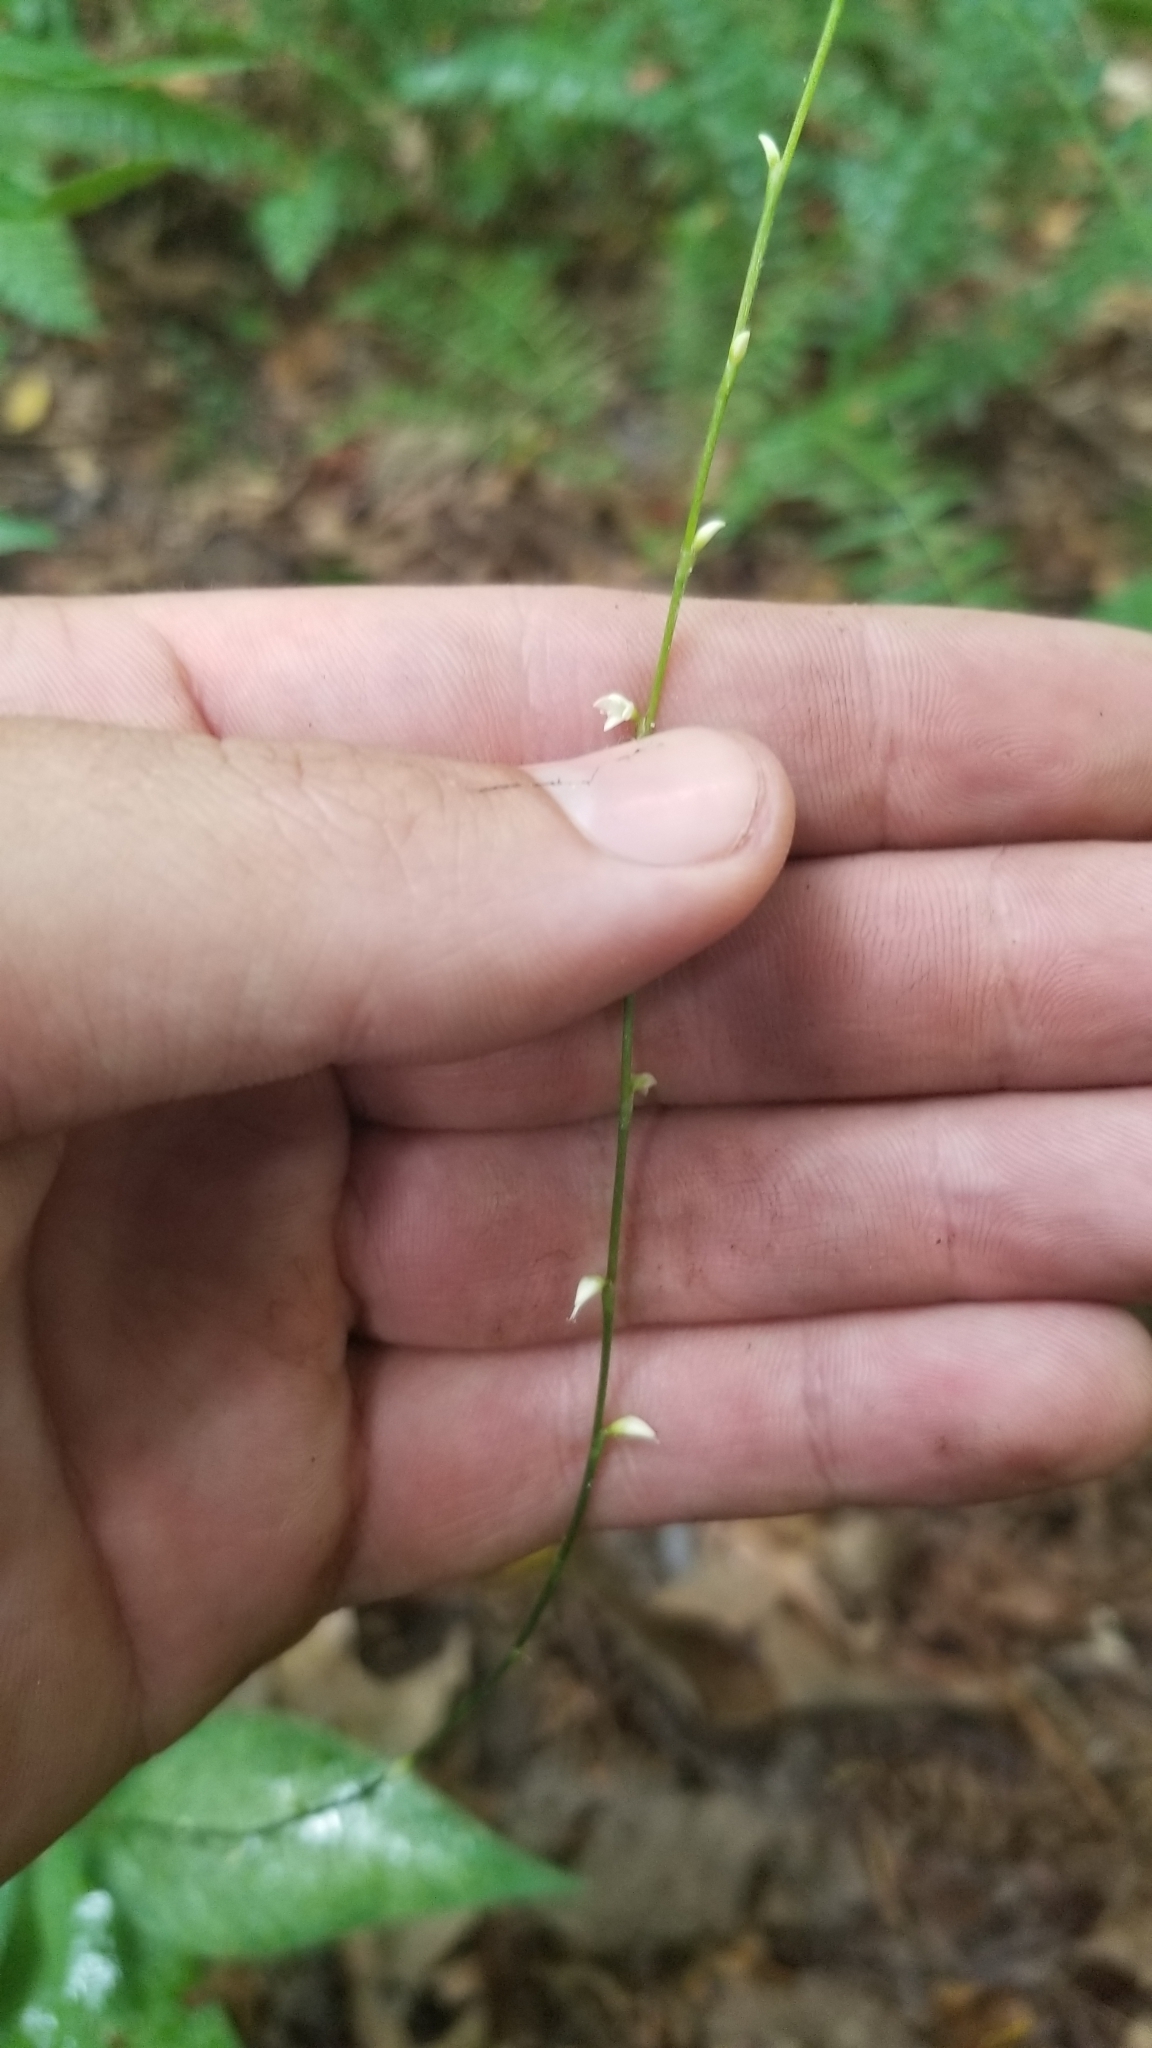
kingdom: Plantae
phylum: Tracheophyta
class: Magnoliopsida
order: Caryophyllales
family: Polygonaceae
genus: Persicaria
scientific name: Persicaria virginiana
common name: Jumpseed
